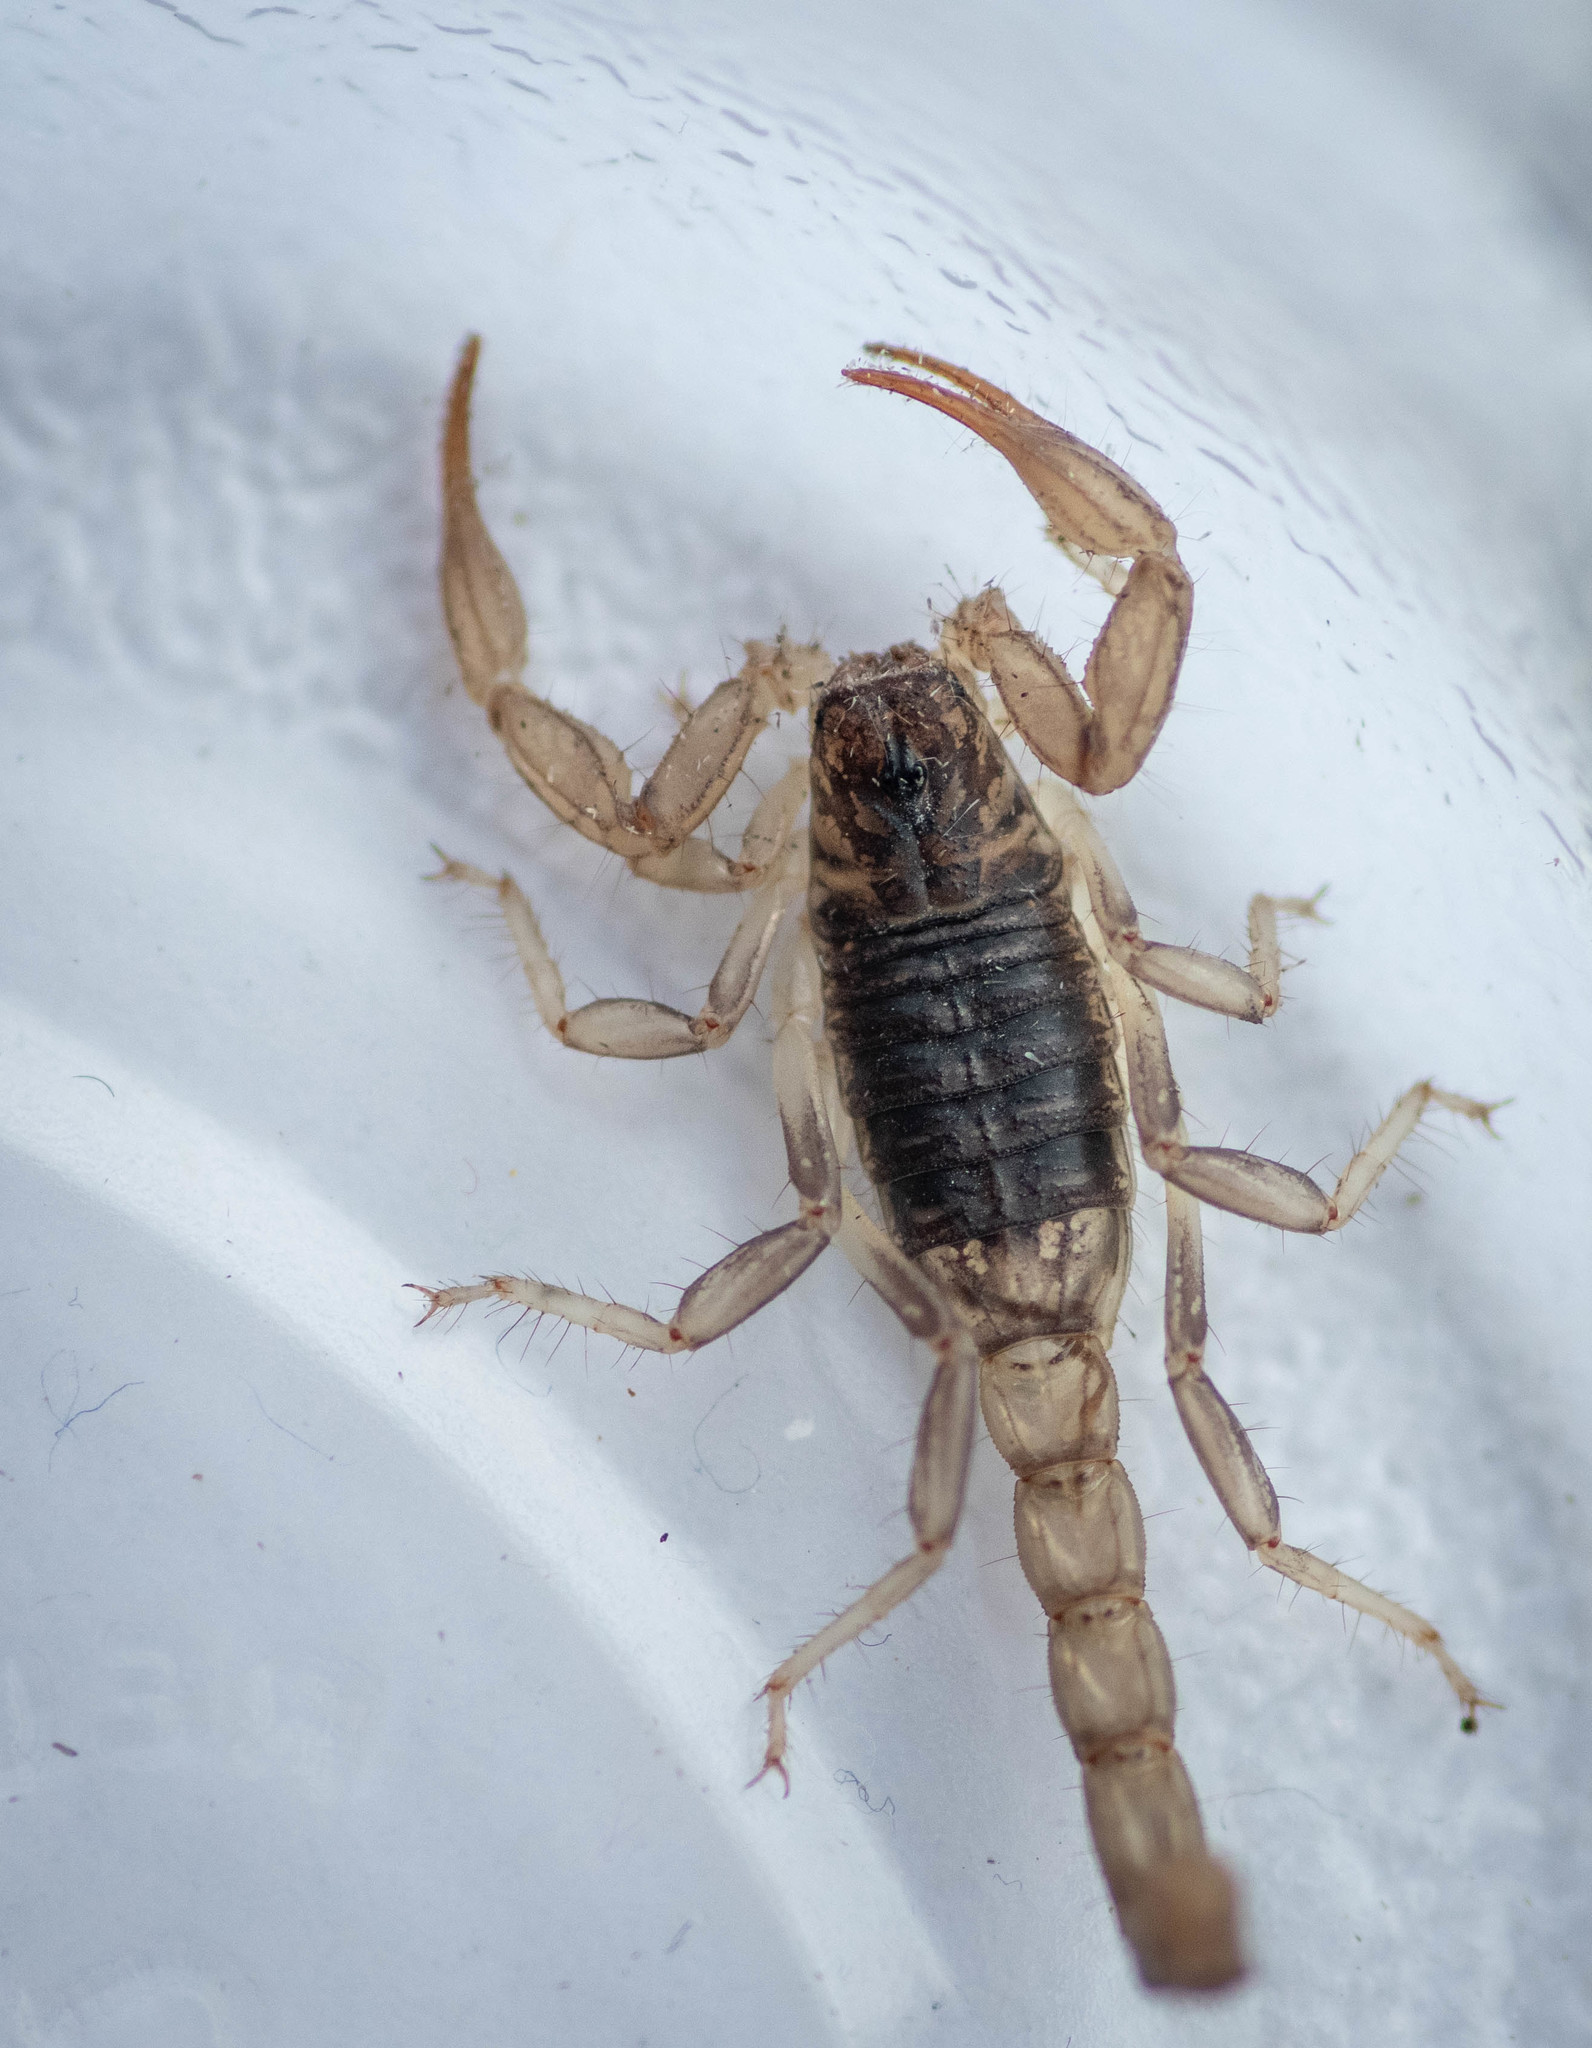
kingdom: Animalia
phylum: Arthropoda
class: Arachnida
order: Scorpiones
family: Vaejovidae
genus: Paruroctonus
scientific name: Paruroctonus silvestrii
